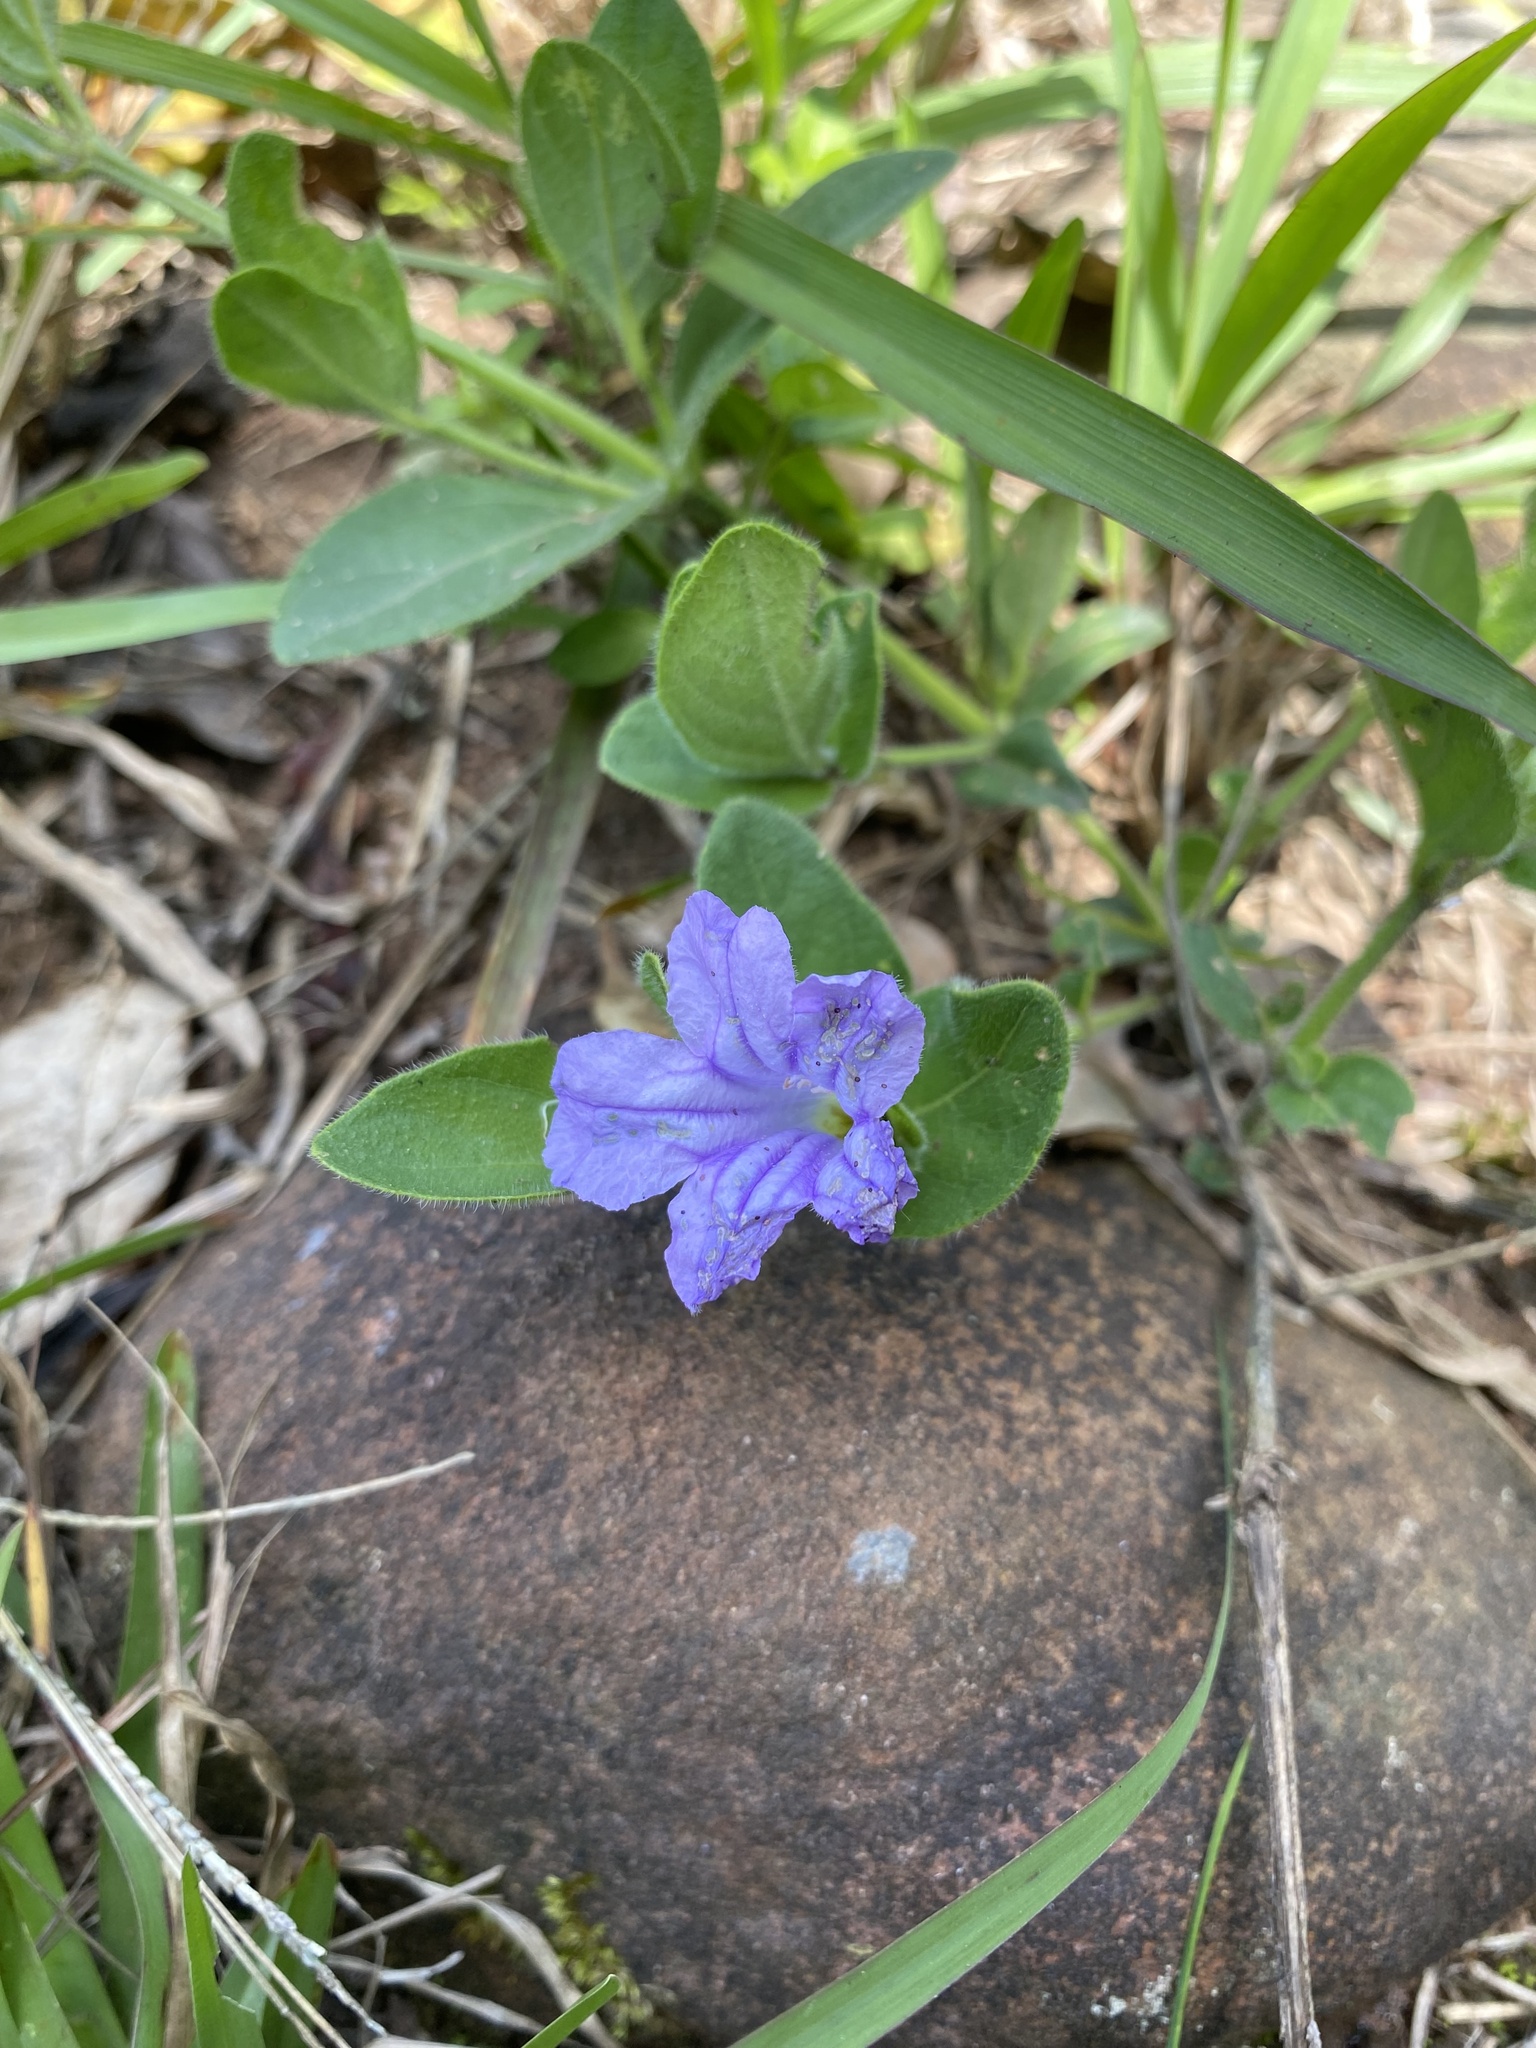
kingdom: Plantae
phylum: Tracheophyta
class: Magnoliopsida
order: Lamiales
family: Acanthaceae
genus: Ruellia
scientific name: Ruellia cordata
